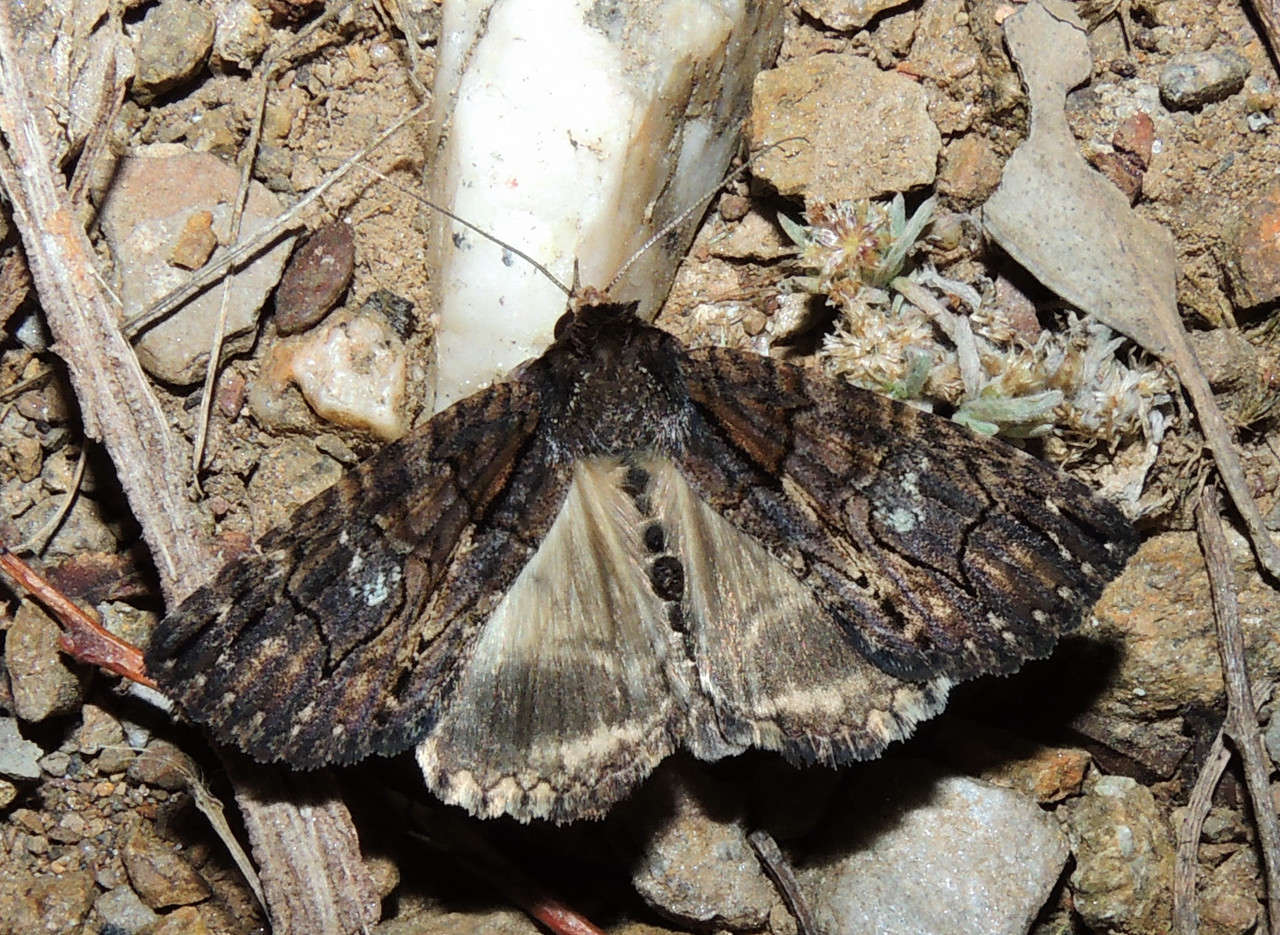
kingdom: Animalia
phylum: Arthropoda
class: Insecta
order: Lepidoptera
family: Erebidae
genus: Crioa
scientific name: Crioa hades
